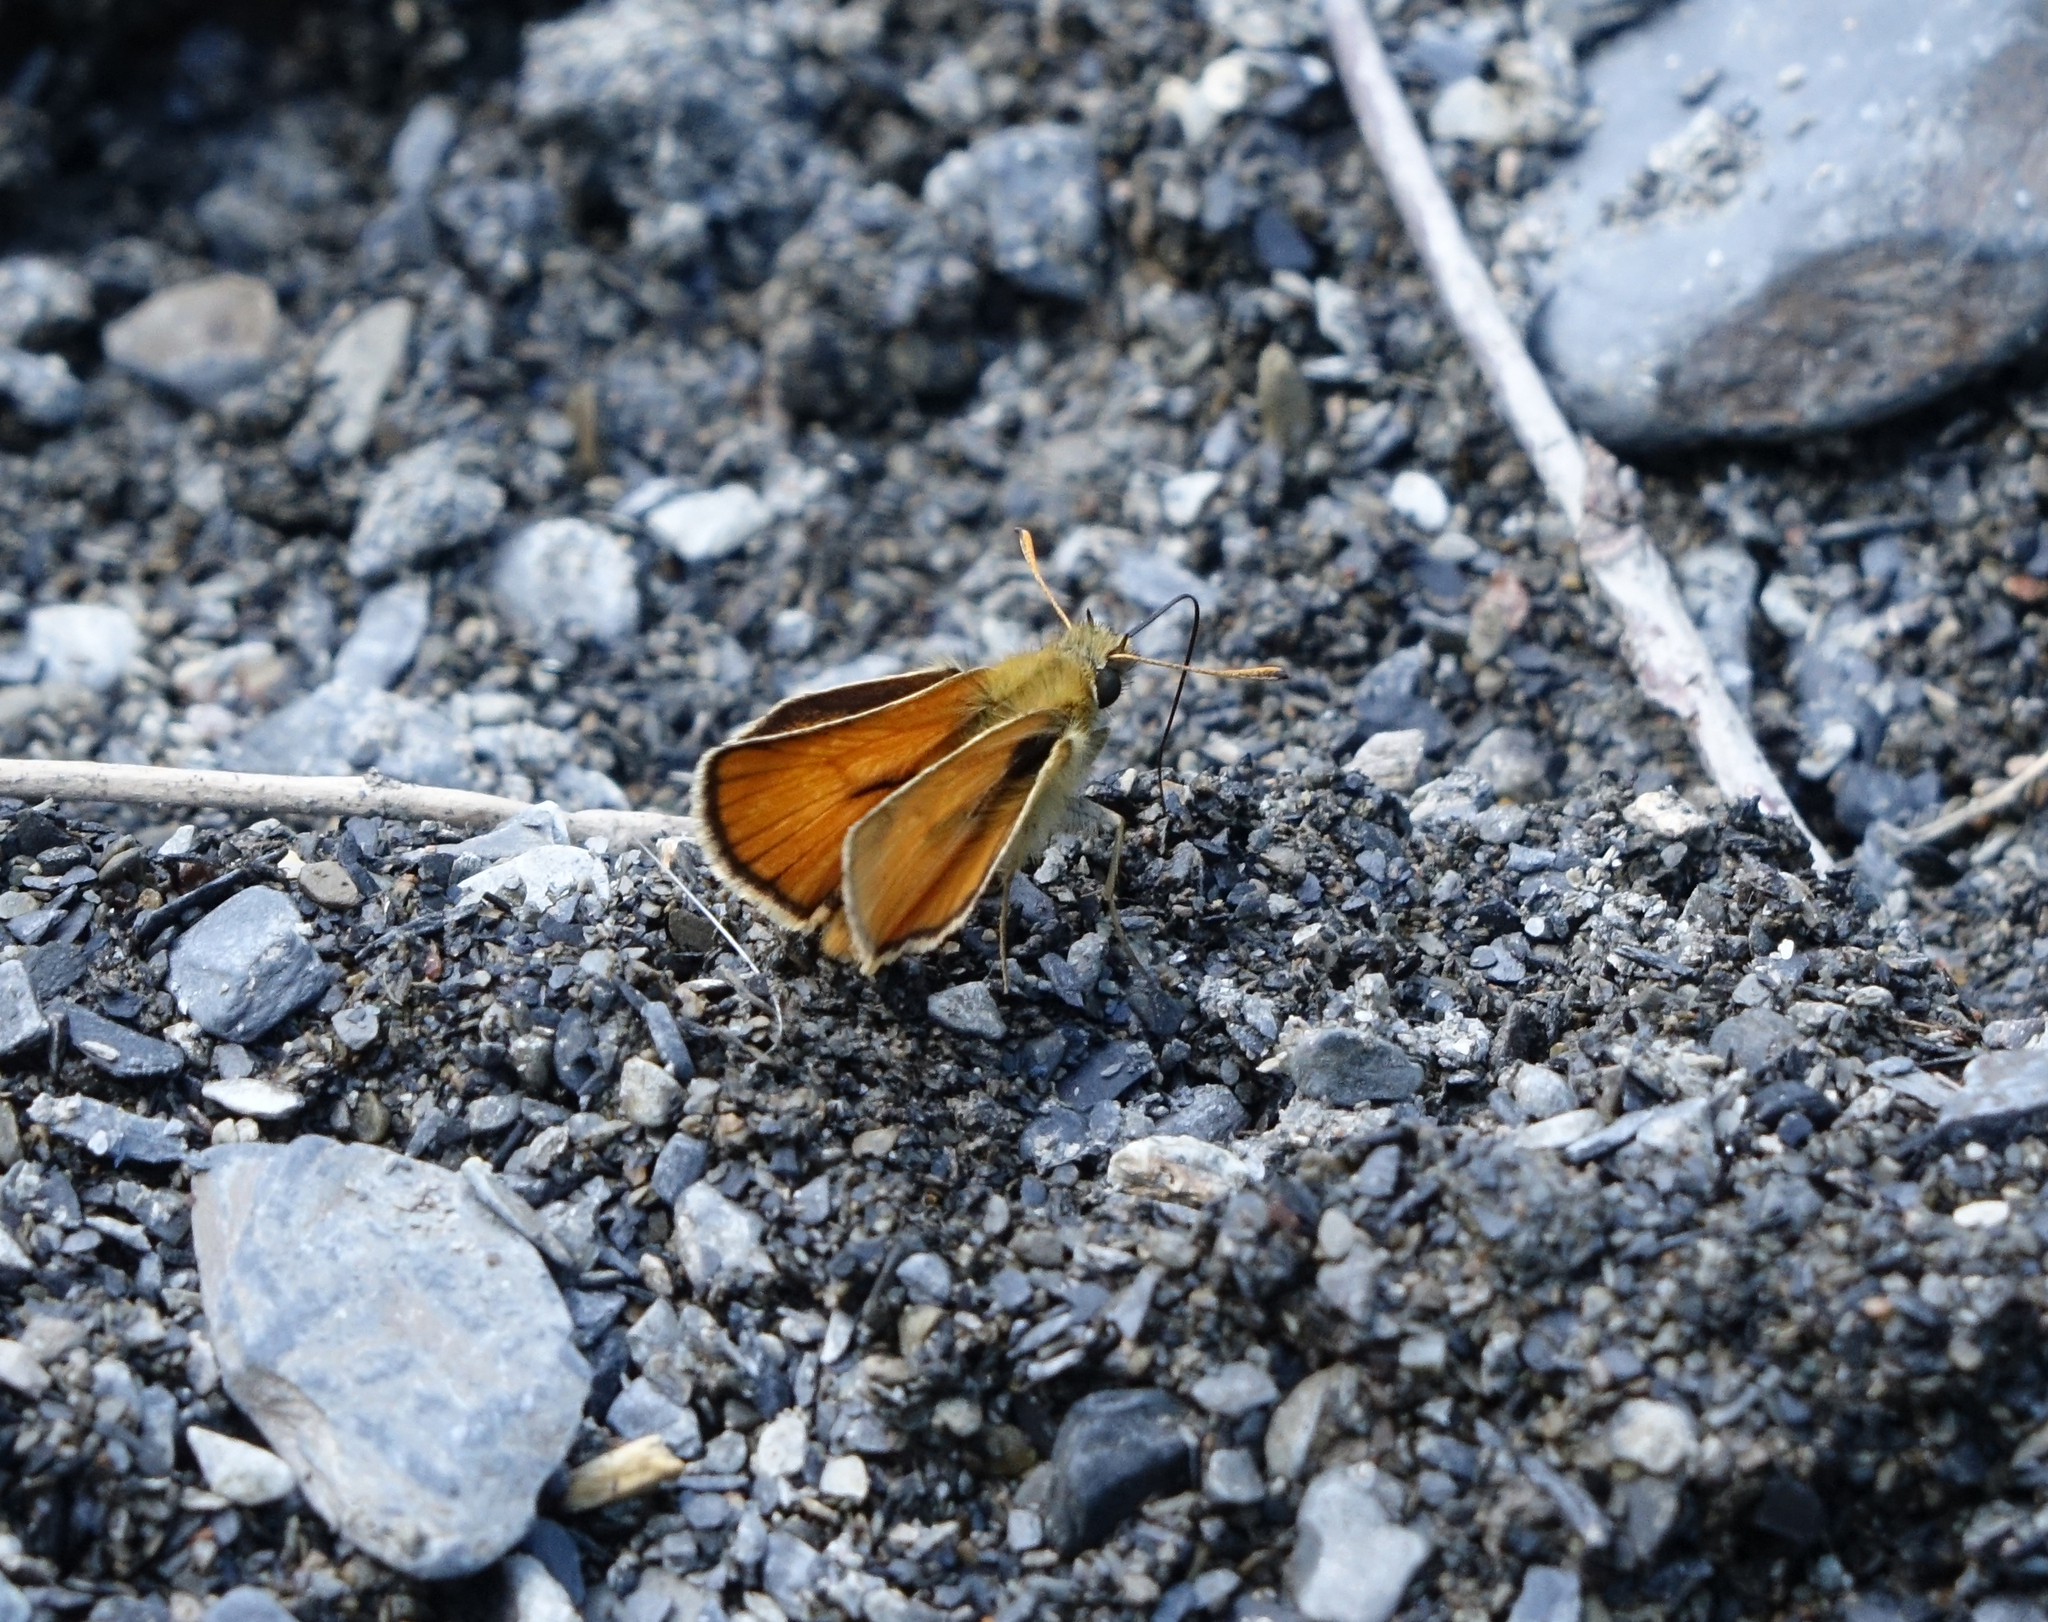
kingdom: Animalia
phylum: Arthropoda
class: Insecta
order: Lepidoptera
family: Hesperiidae
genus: Thymelicus
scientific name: Thymelicus sylvestris
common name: Small skipper
